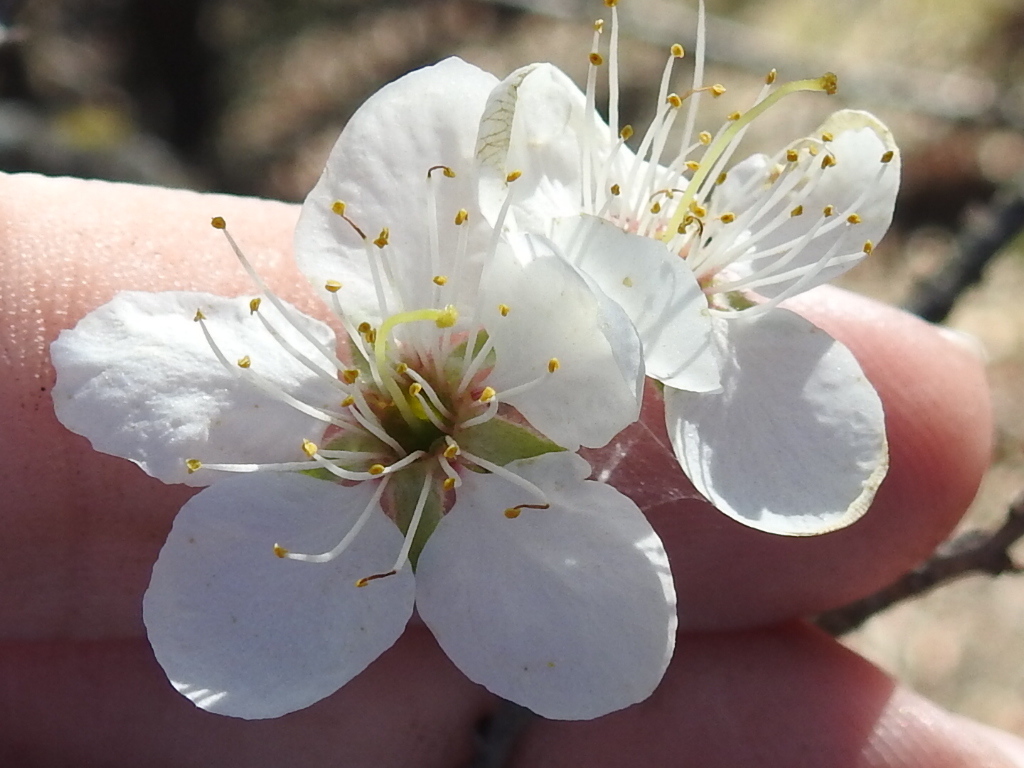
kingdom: Plantae
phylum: Tracheophyta
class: Magnoliopsida
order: Rosales
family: Rosaceae
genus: Prunus
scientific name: Prunus mexicana
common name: Mexican plum
